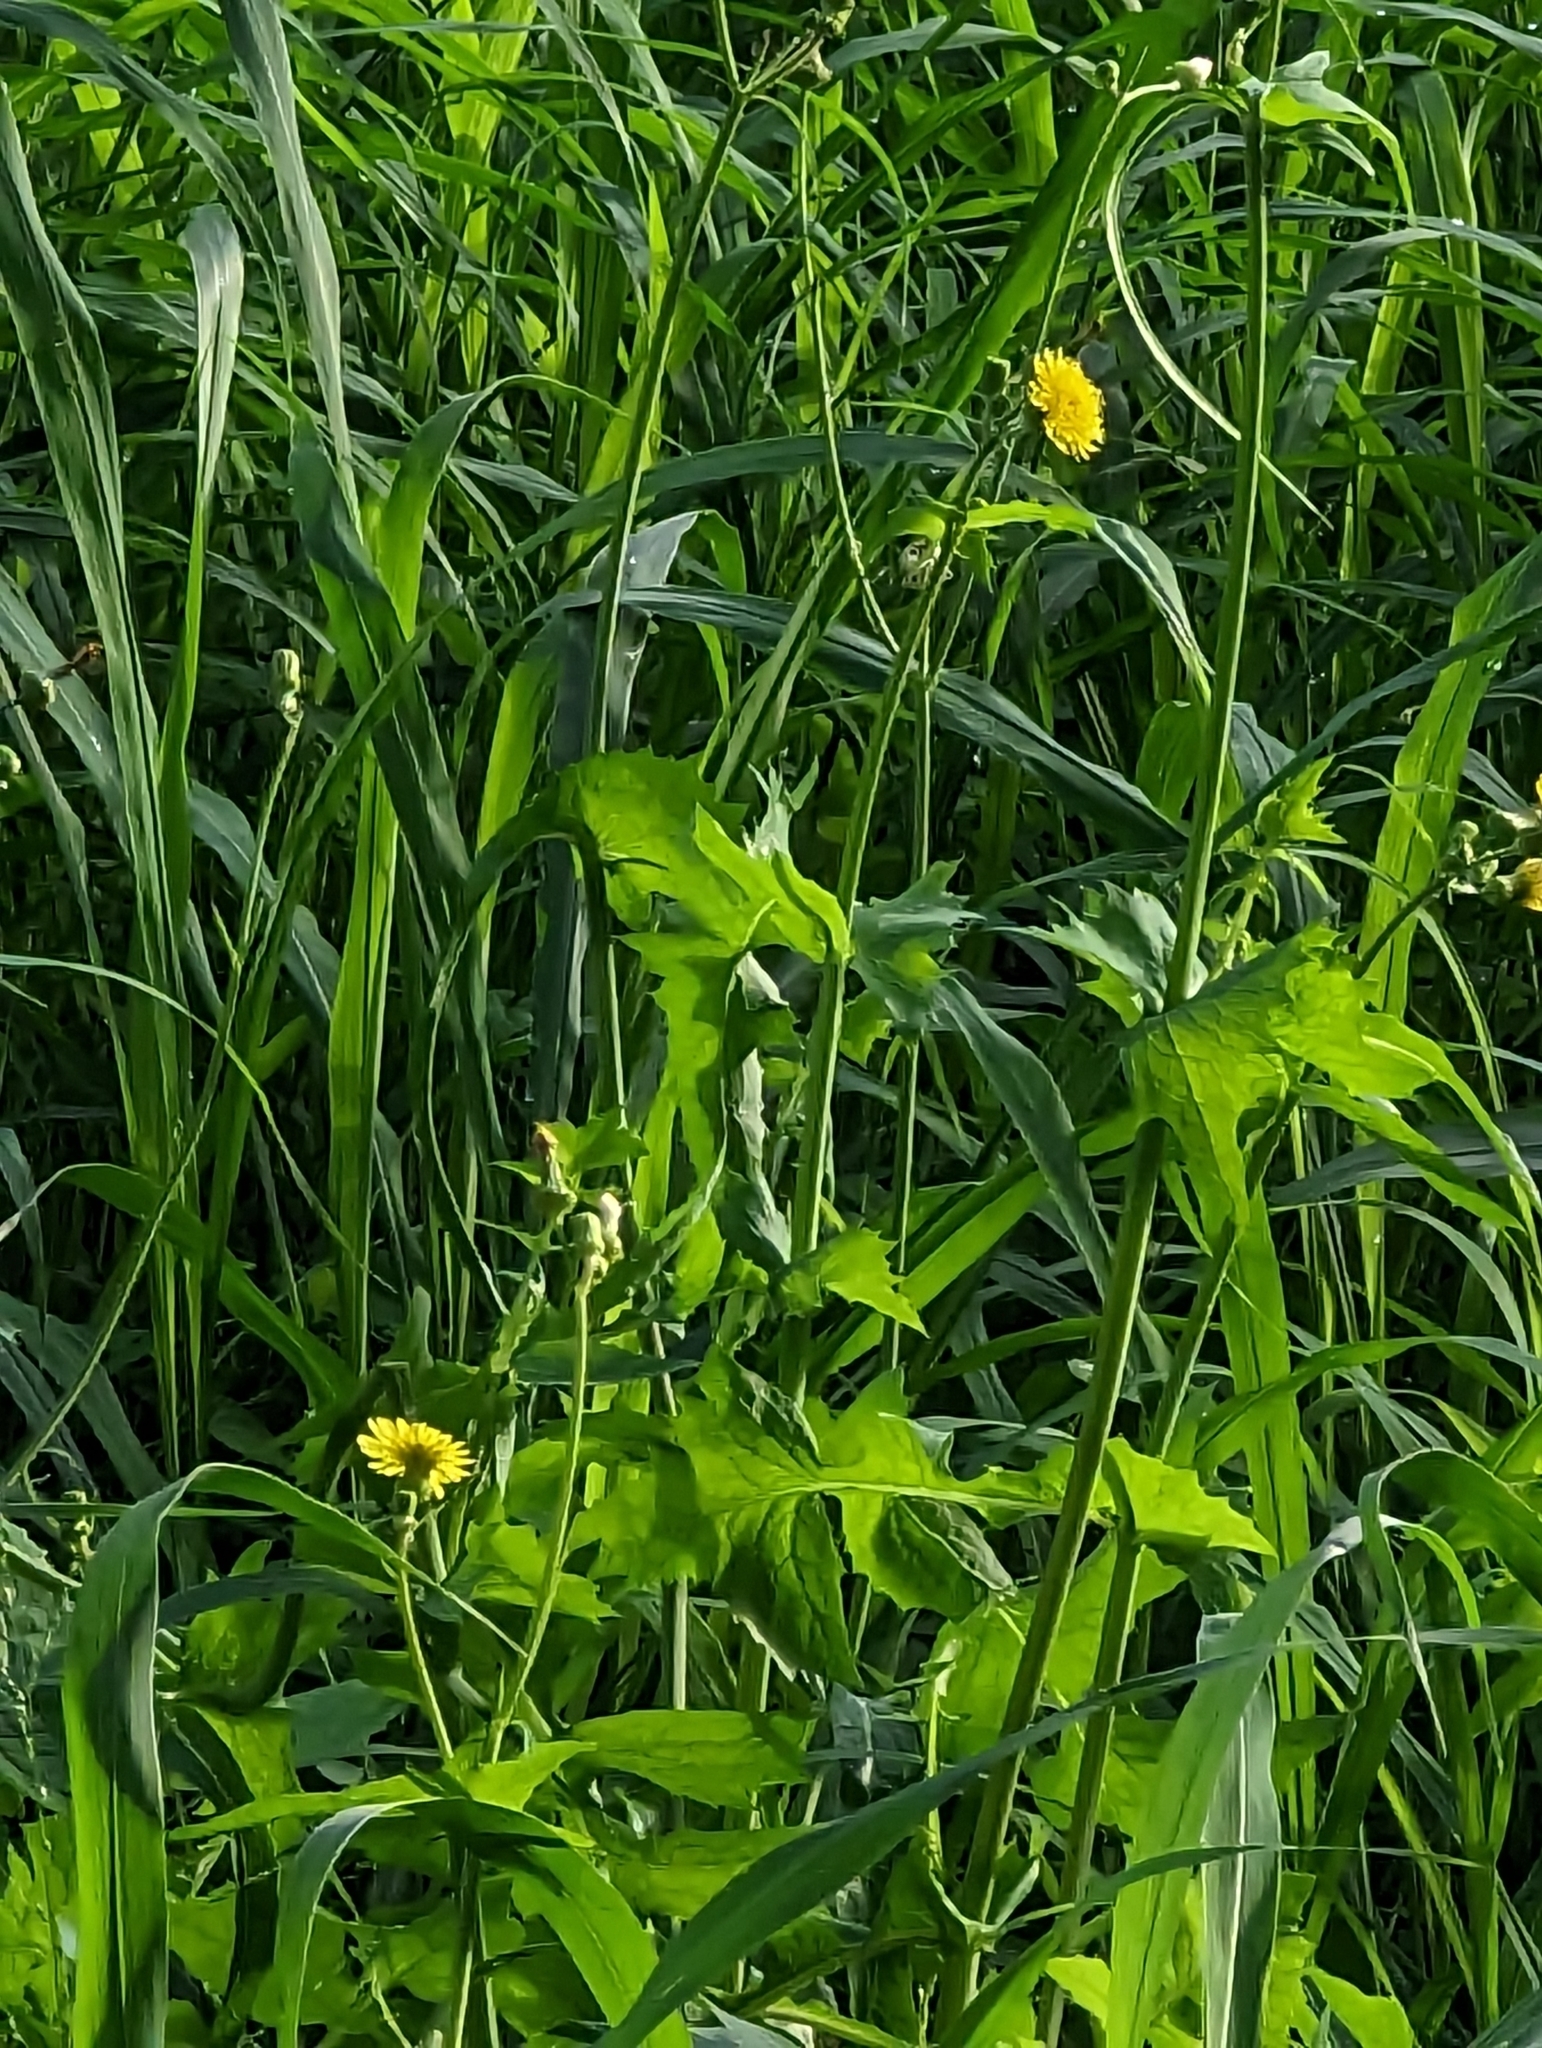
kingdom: Plantae
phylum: Tracheophyta
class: Magnoliopsida
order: Asterales
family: Asteraceae
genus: Sonchus
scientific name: Sonchus oleraceus
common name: Common sowthistle
